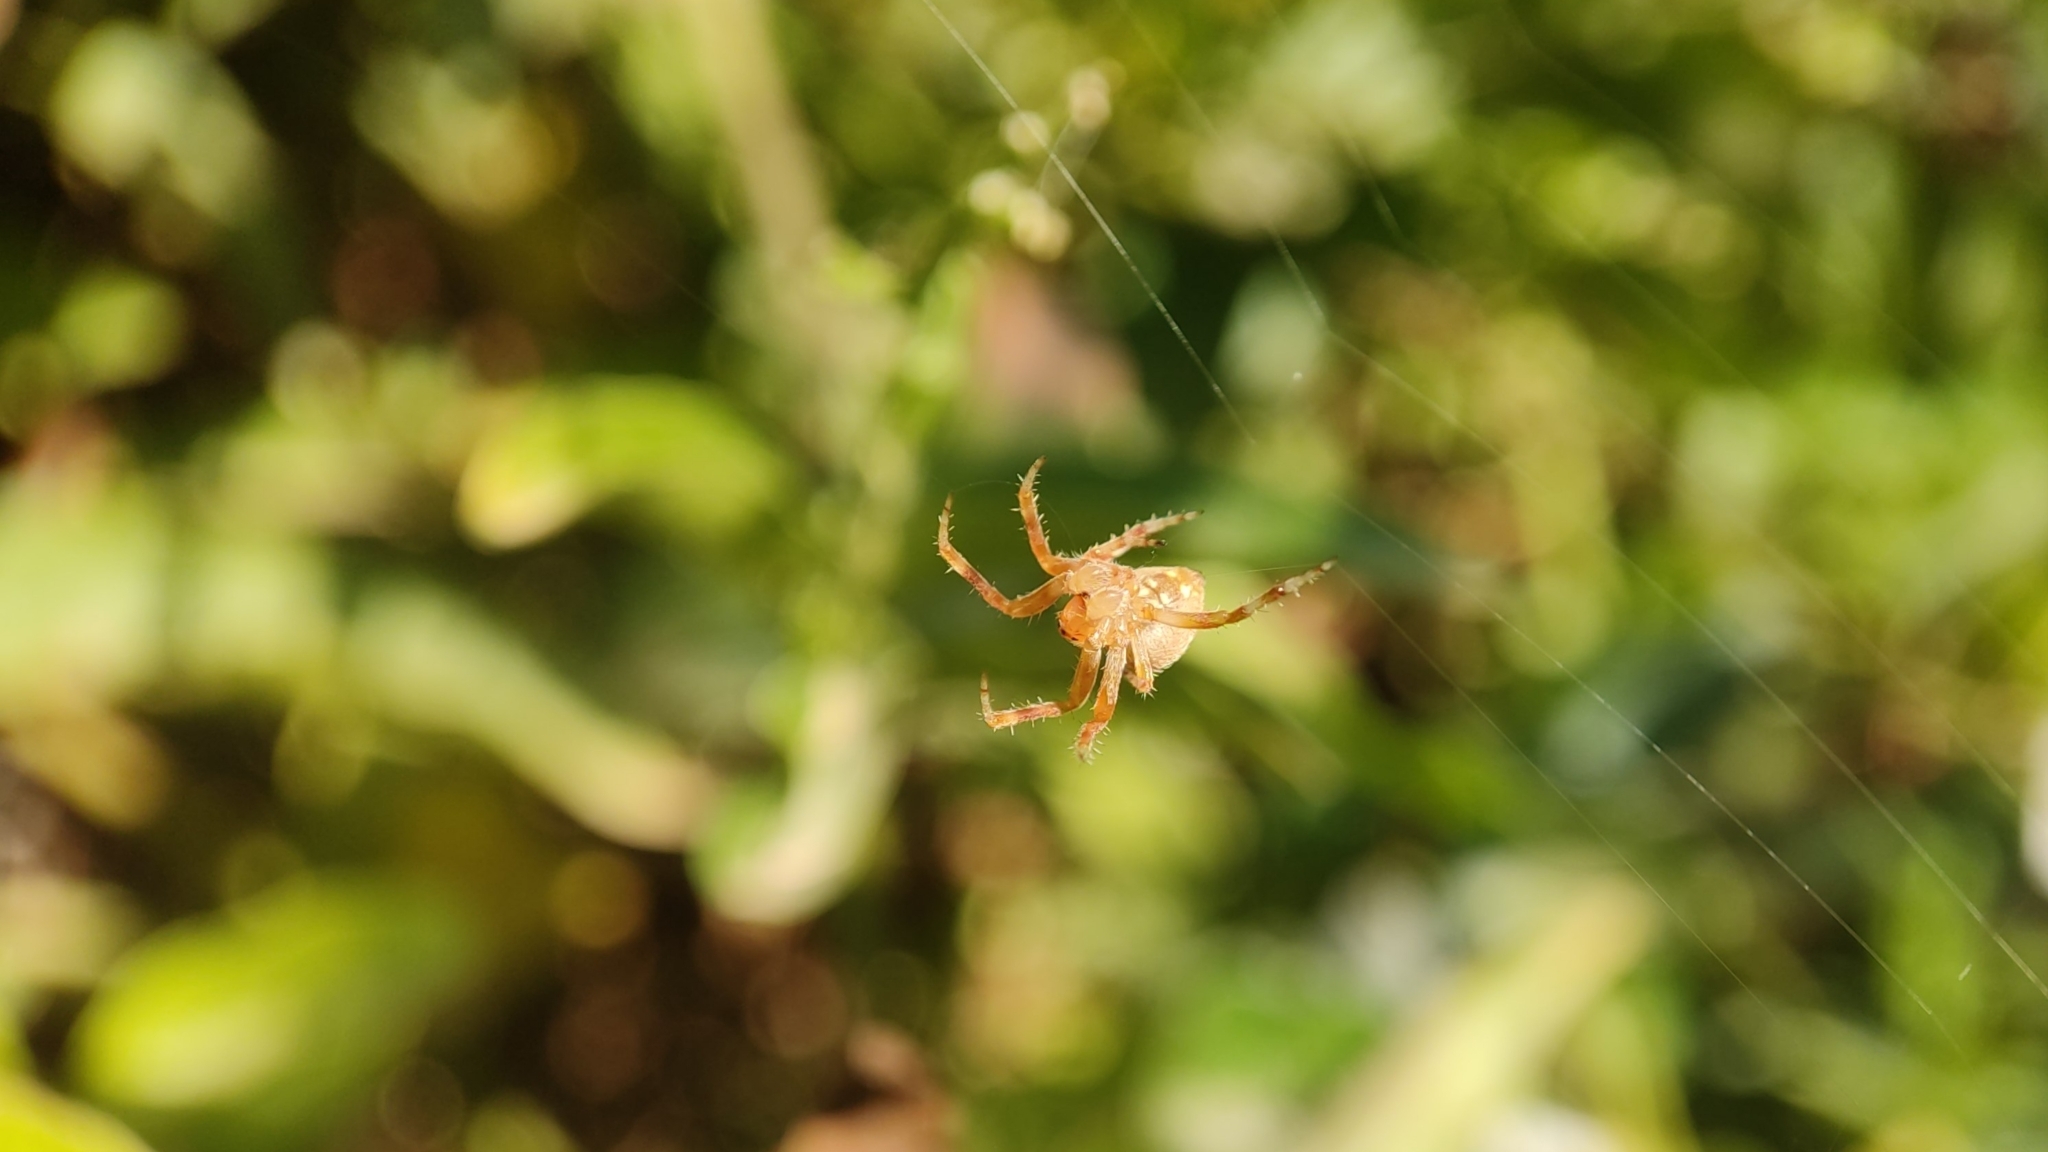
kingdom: Animalia
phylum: Arthropoda
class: Arachnida
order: Araneae
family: Araneidae
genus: Neoscona
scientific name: Neoscona subfusca
